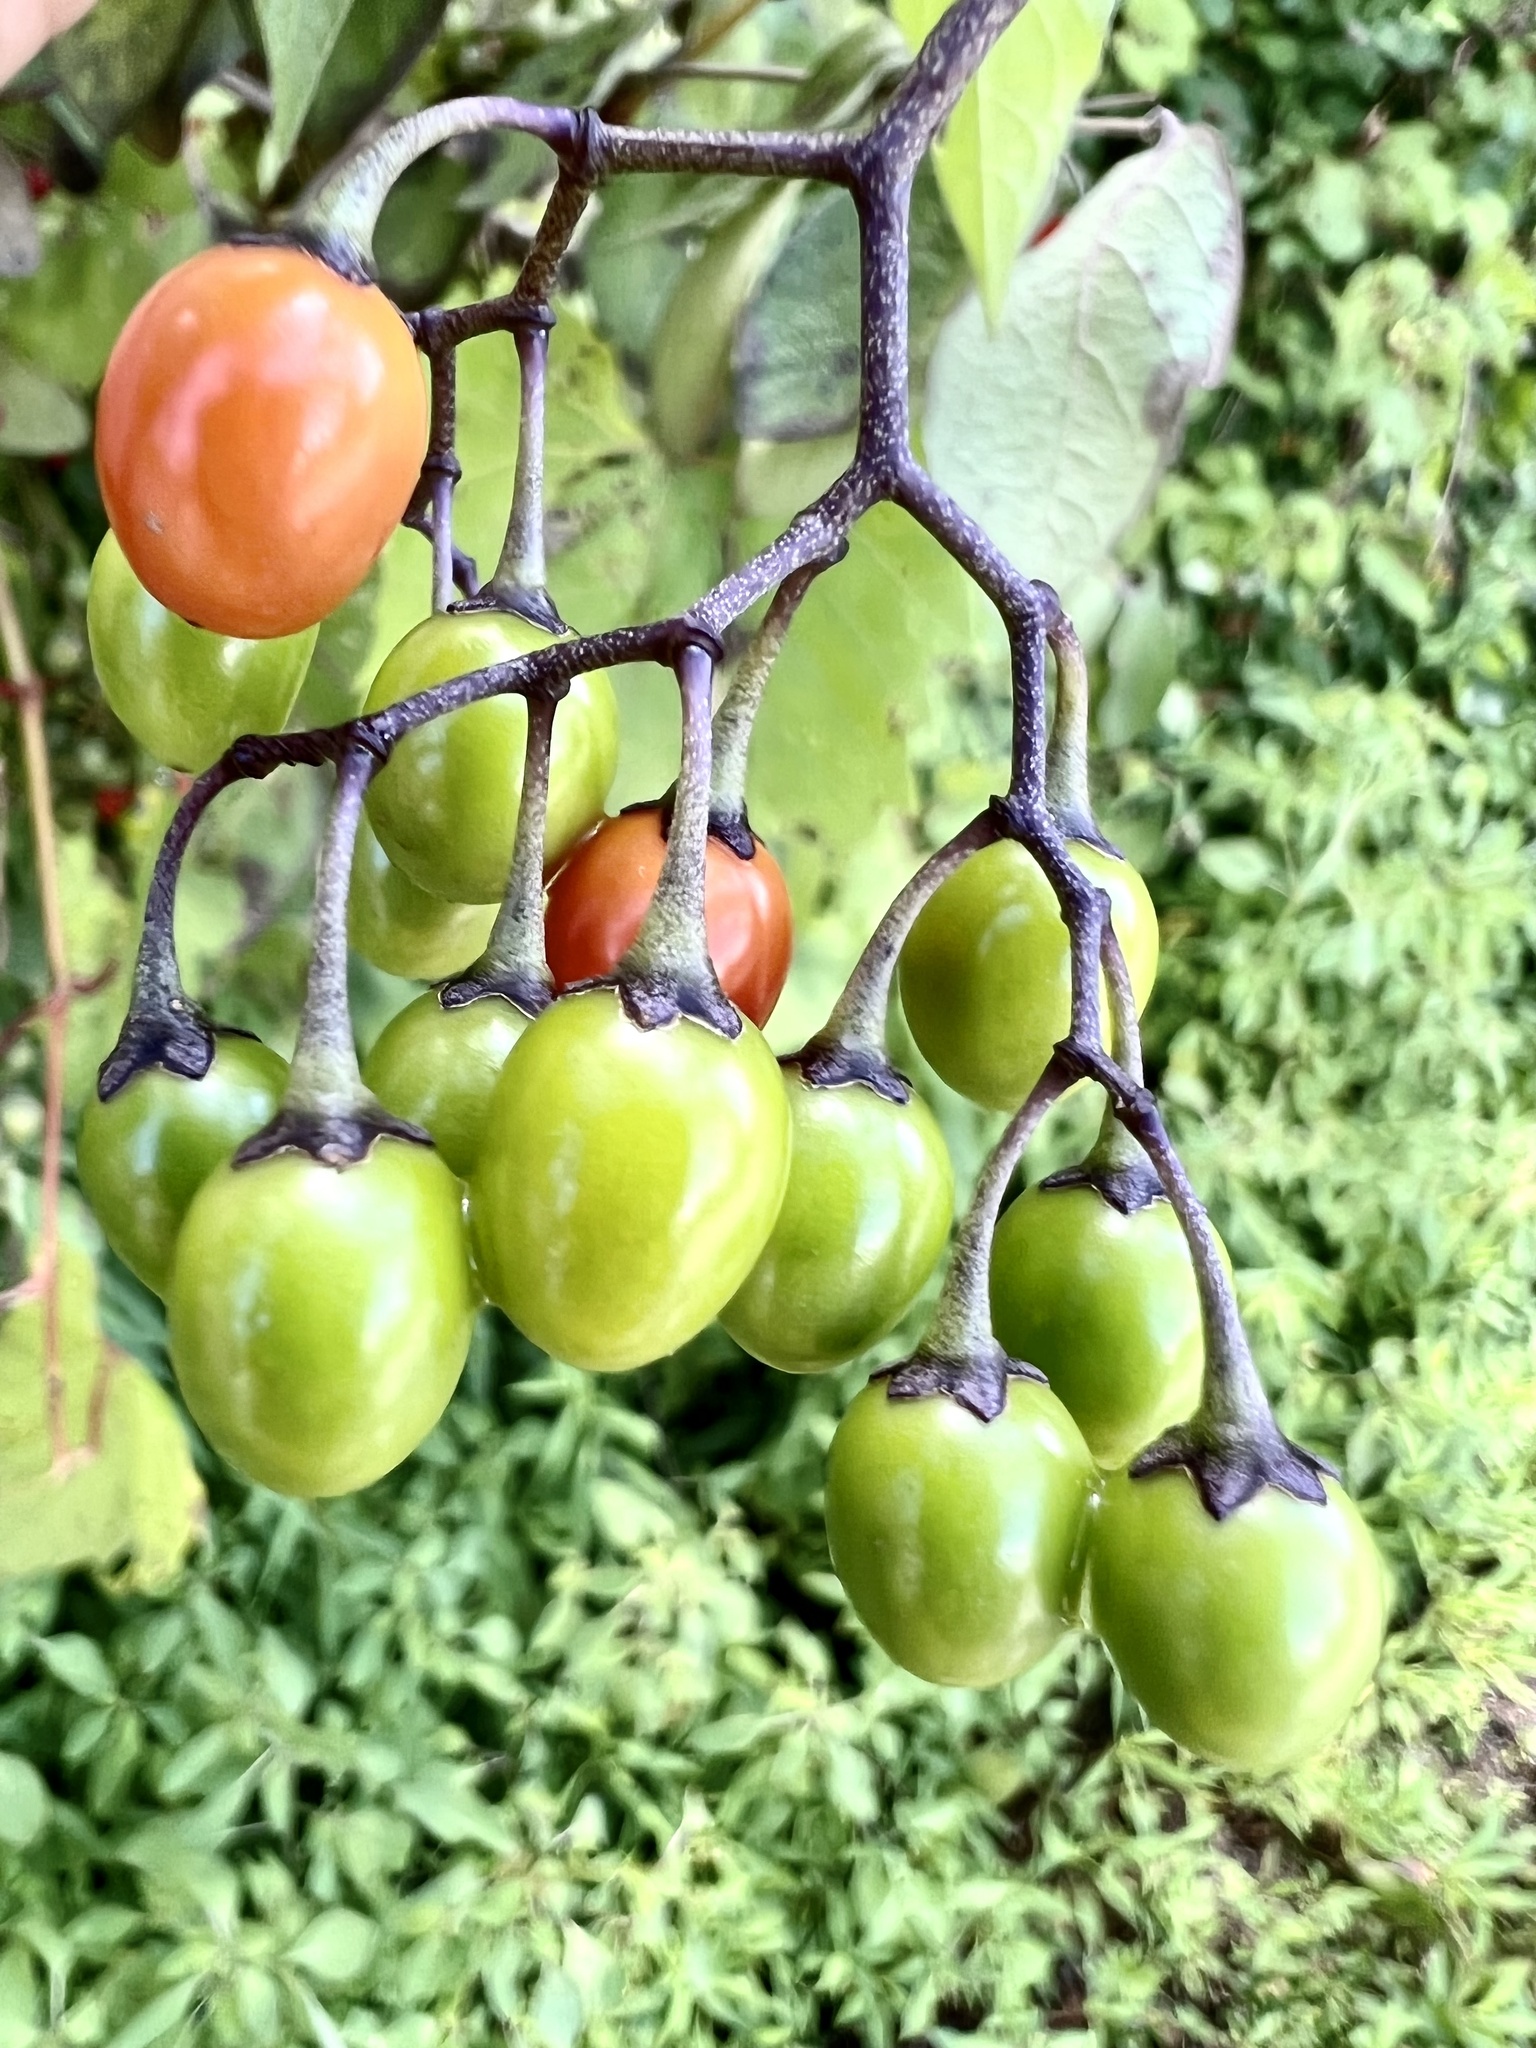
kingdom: Plantae
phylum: Tracheophyta
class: Magnoliopsida
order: Solanales
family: Solanaceae
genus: Solanum
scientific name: Solanum dulcamara
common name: Climbing nightshade
